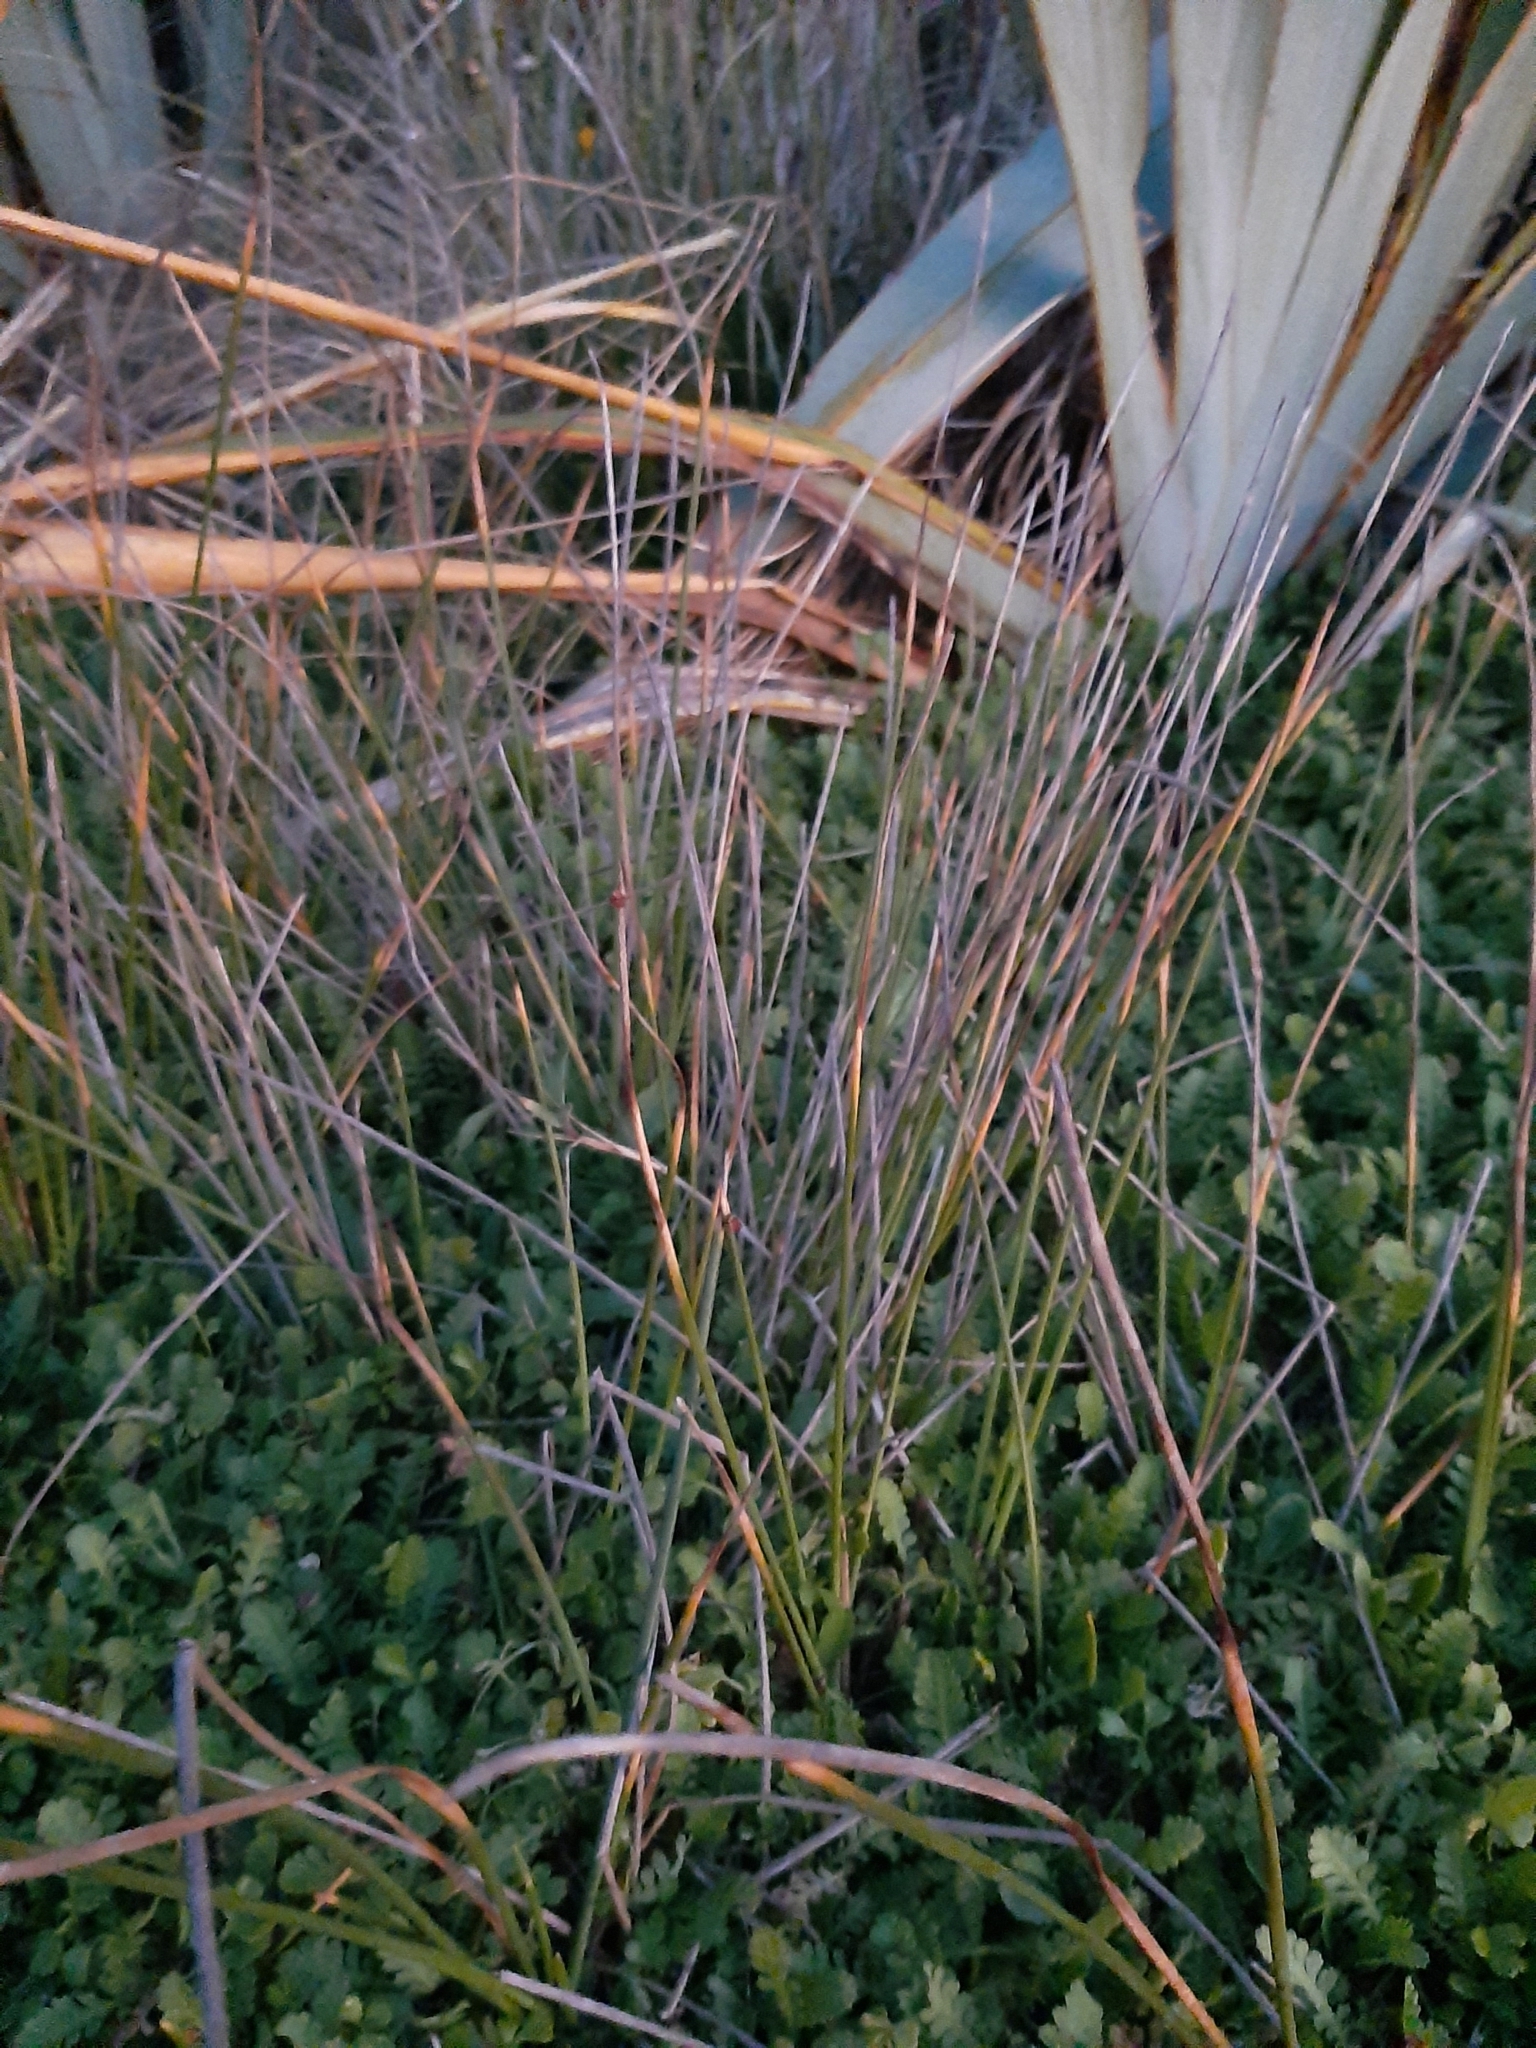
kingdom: Plantae
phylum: Tracheophyta
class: Liliopsida
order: Poales
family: Cyperaceae
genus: Ficinia
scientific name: Ficinia nodosa
